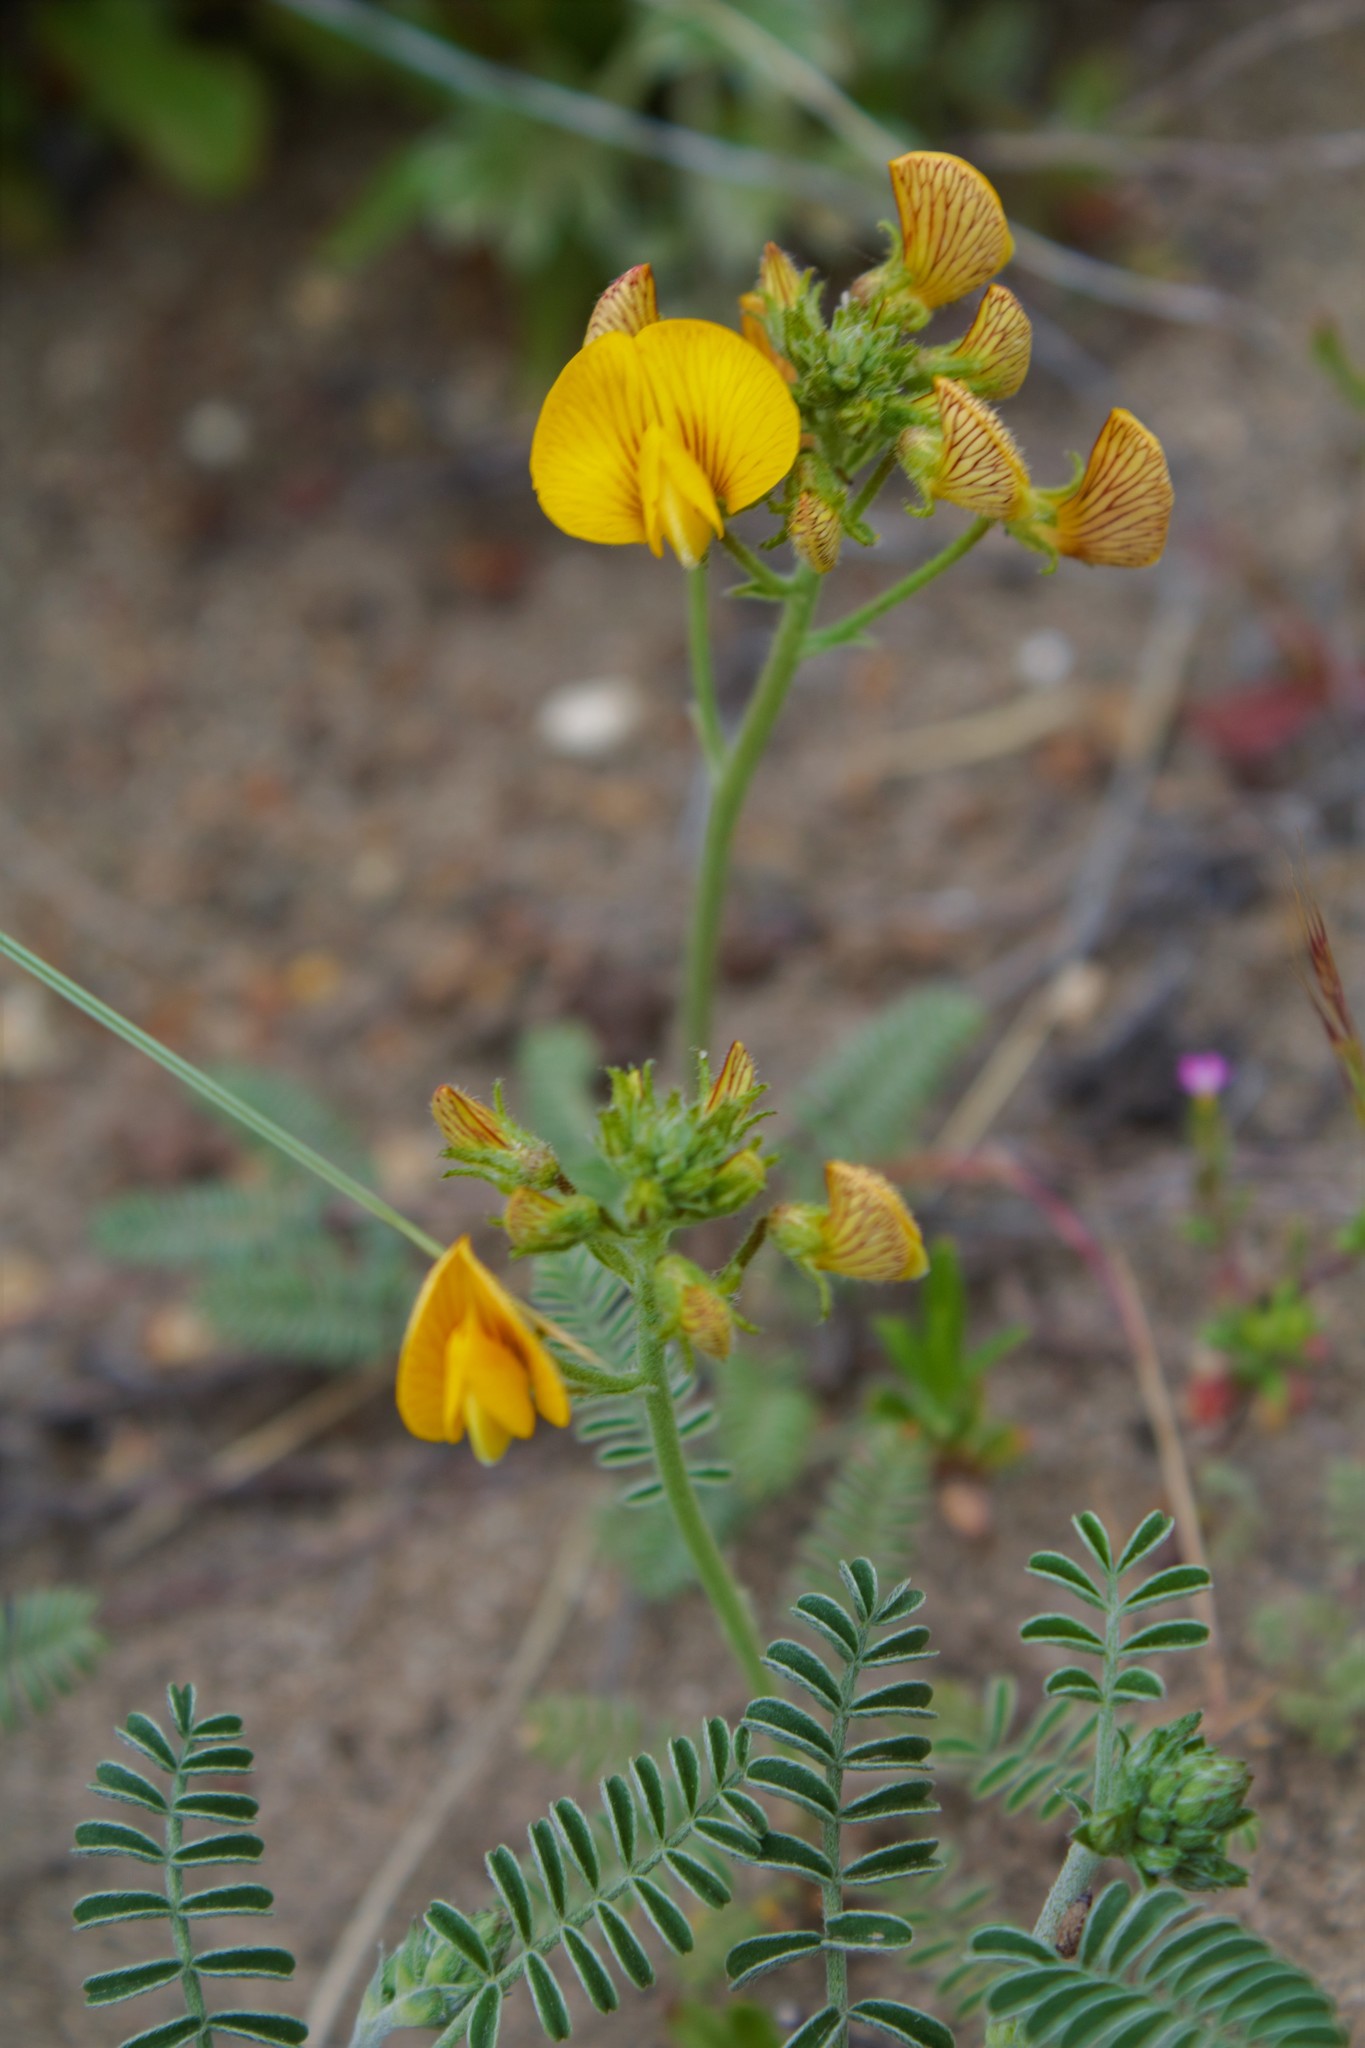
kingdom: Plantae
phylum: Tracheophyta
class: Magnoliopsida
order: Fabales
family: Fabaceae
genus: Adesmia
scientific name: Adesmia corymbosa
